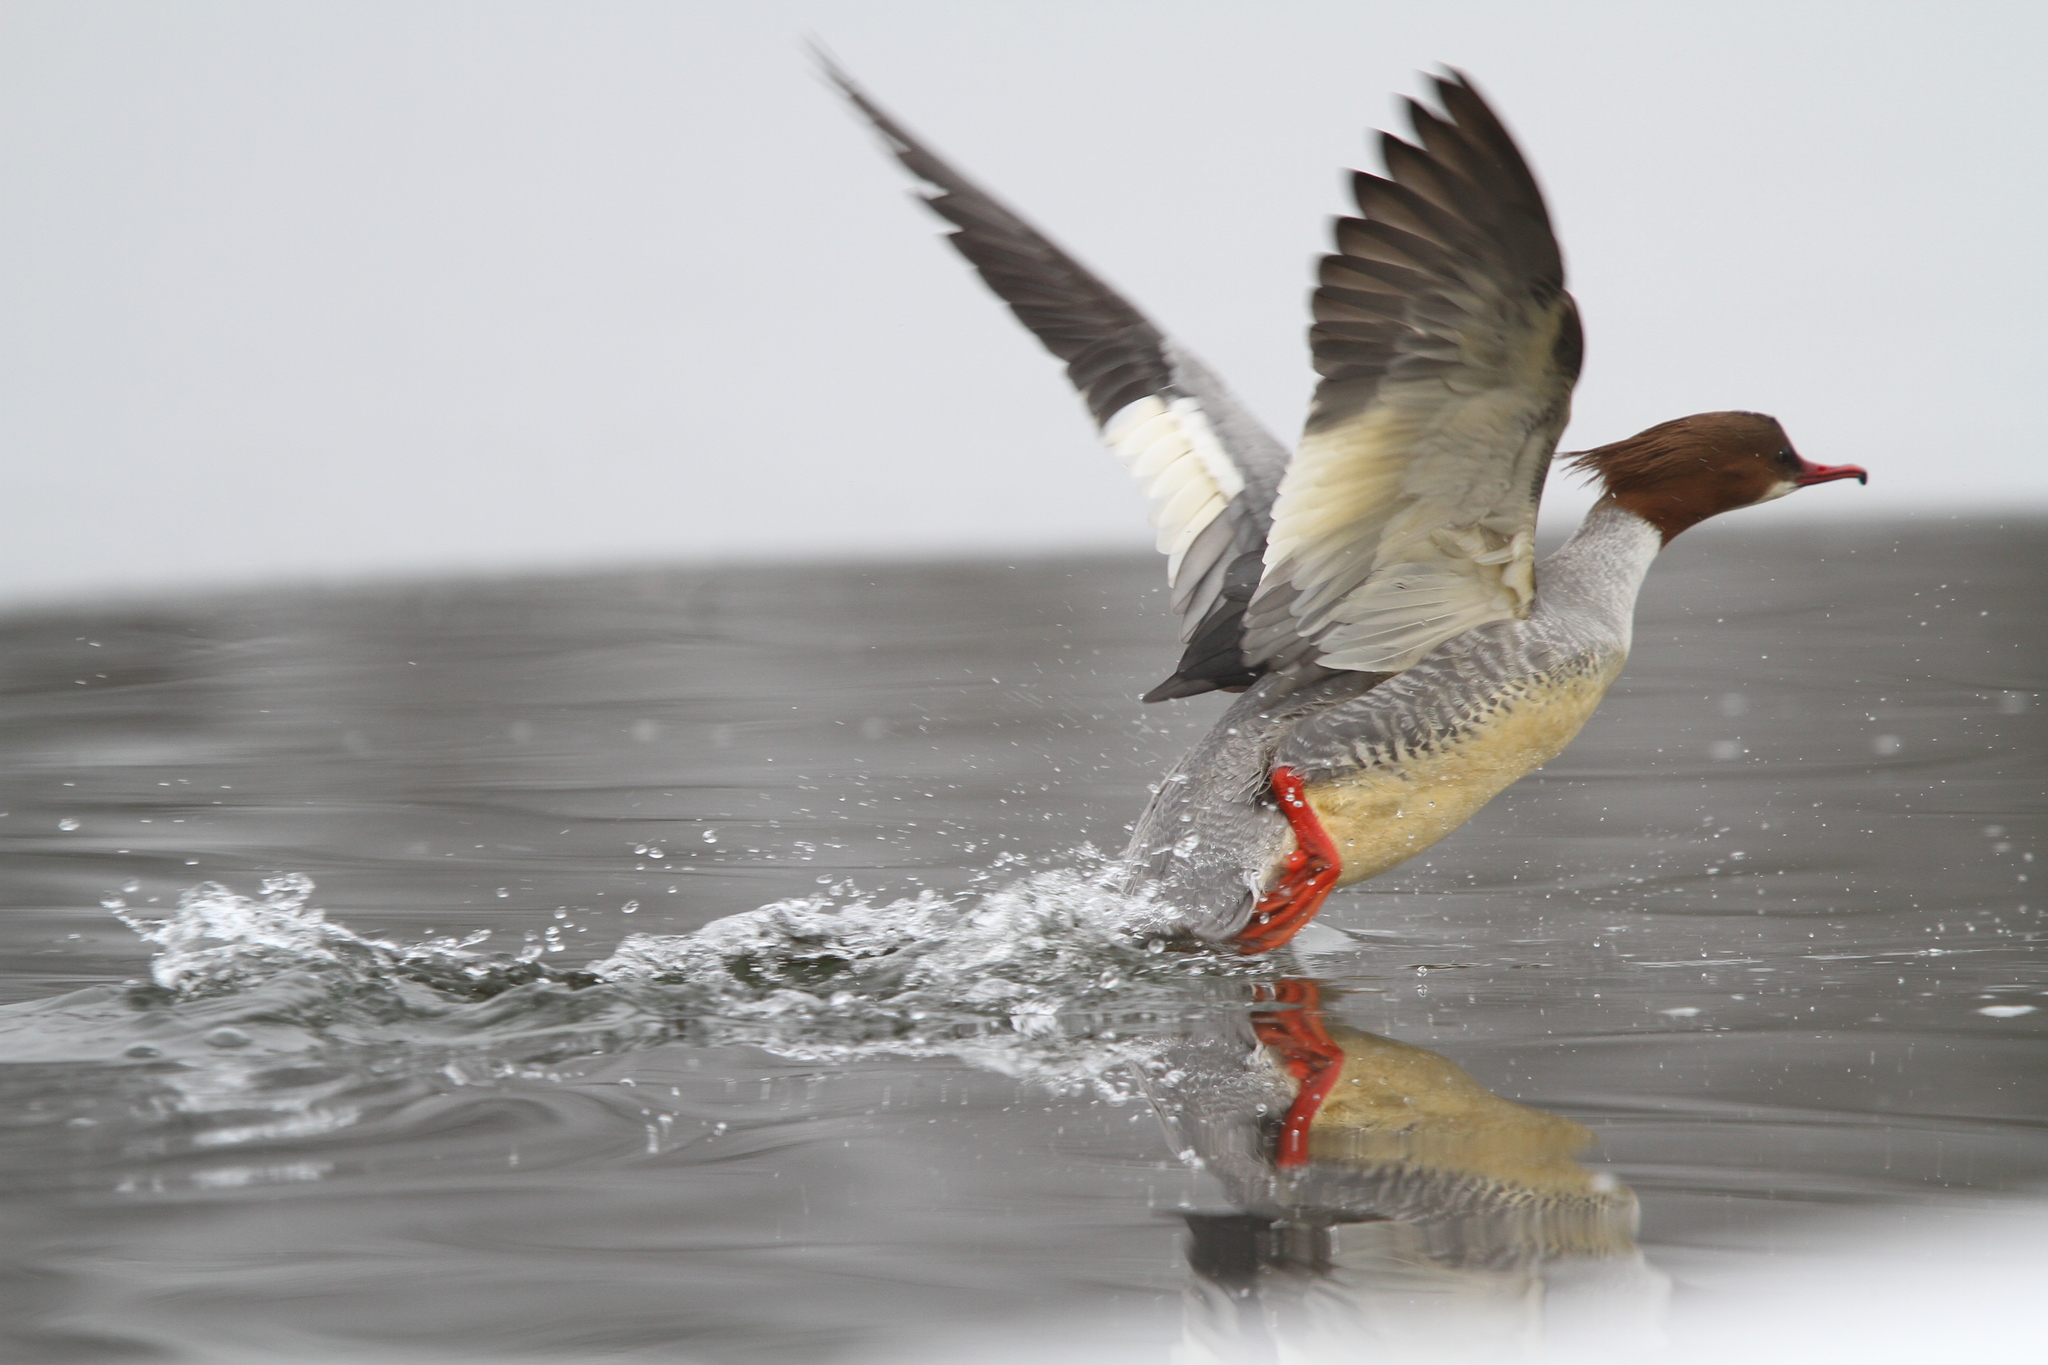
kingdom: Animalia
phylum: Chordata
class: Aves
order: Anseriformes
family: Anatidae
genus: Mergus
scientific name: Mergus merganser
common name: Common merganser
